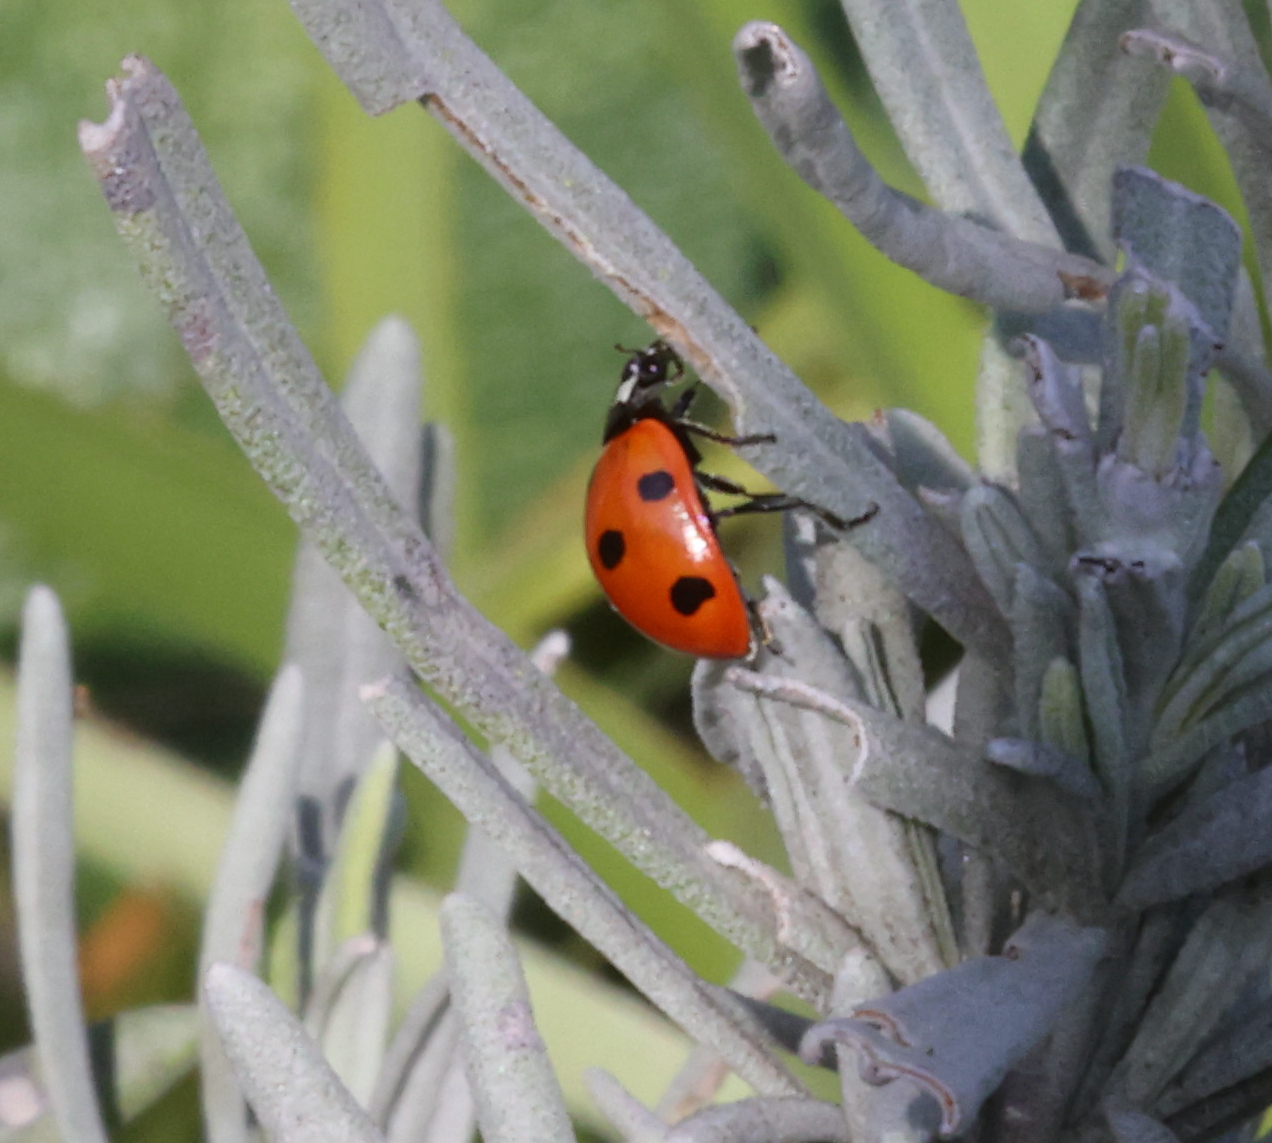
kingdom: Animalia
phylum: Arthropoda
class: Insecta
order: Coleoptera
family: Coccinellidae
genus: Coccinella
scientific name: Coccinella septempunctata
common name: Sevenspotted lady beetle
